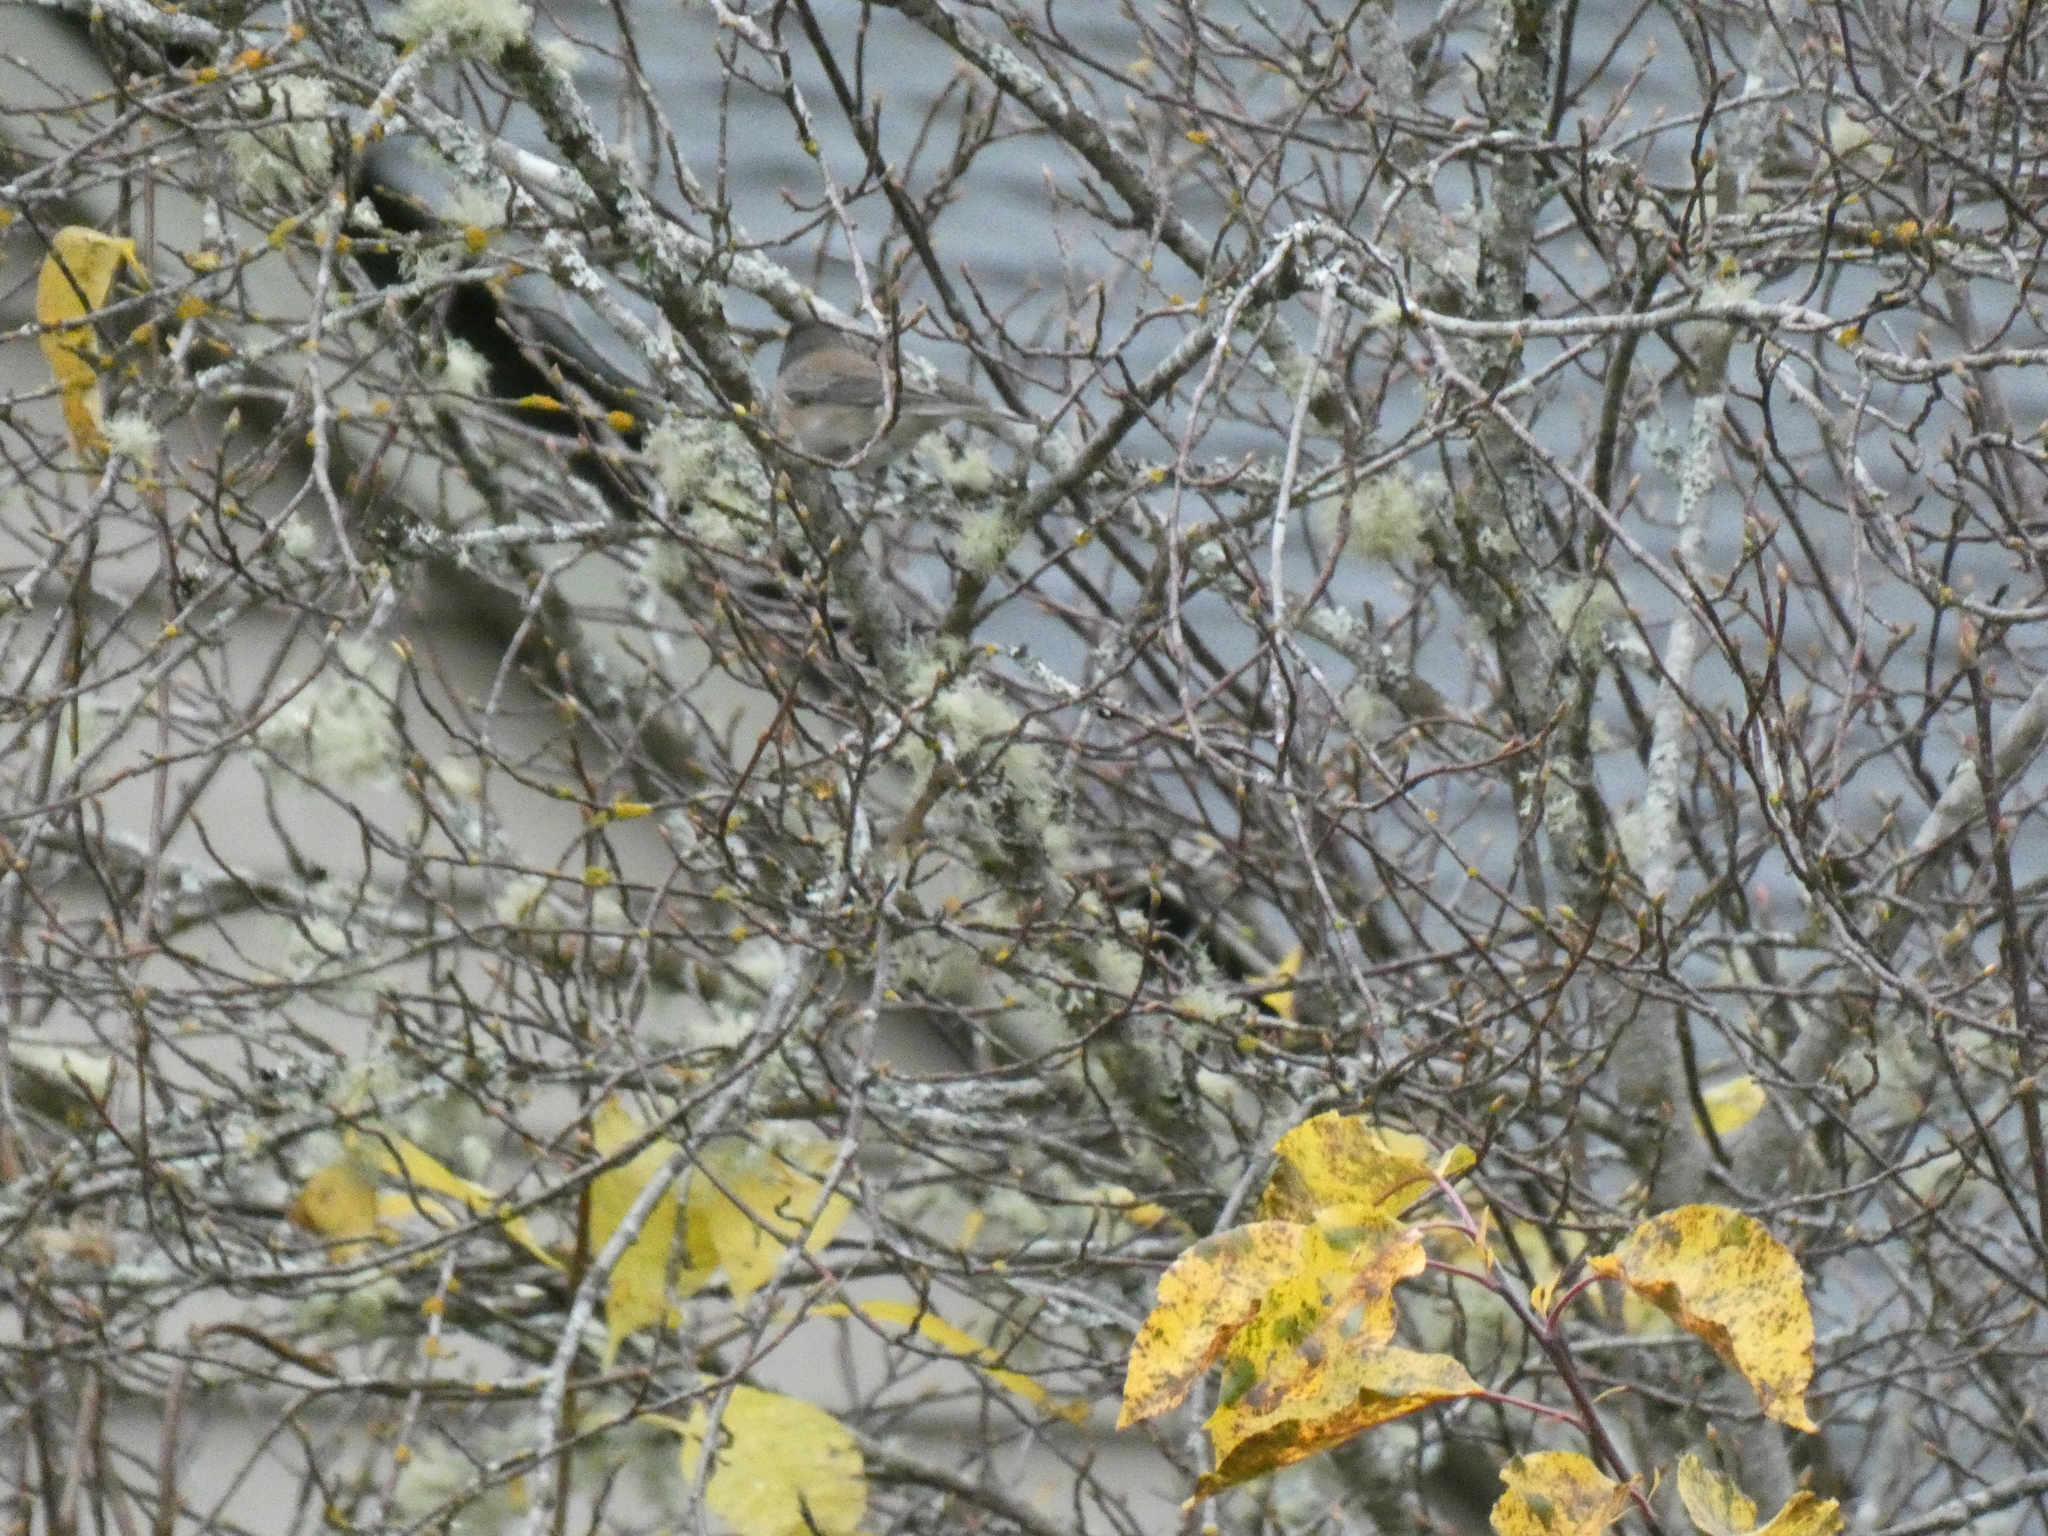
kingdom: Animalia
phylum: Chordata
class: Aves
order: Passeriformes
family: Passerellidae
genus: Junco
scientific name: Junco hyemalis
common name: Dark-eyed junco
